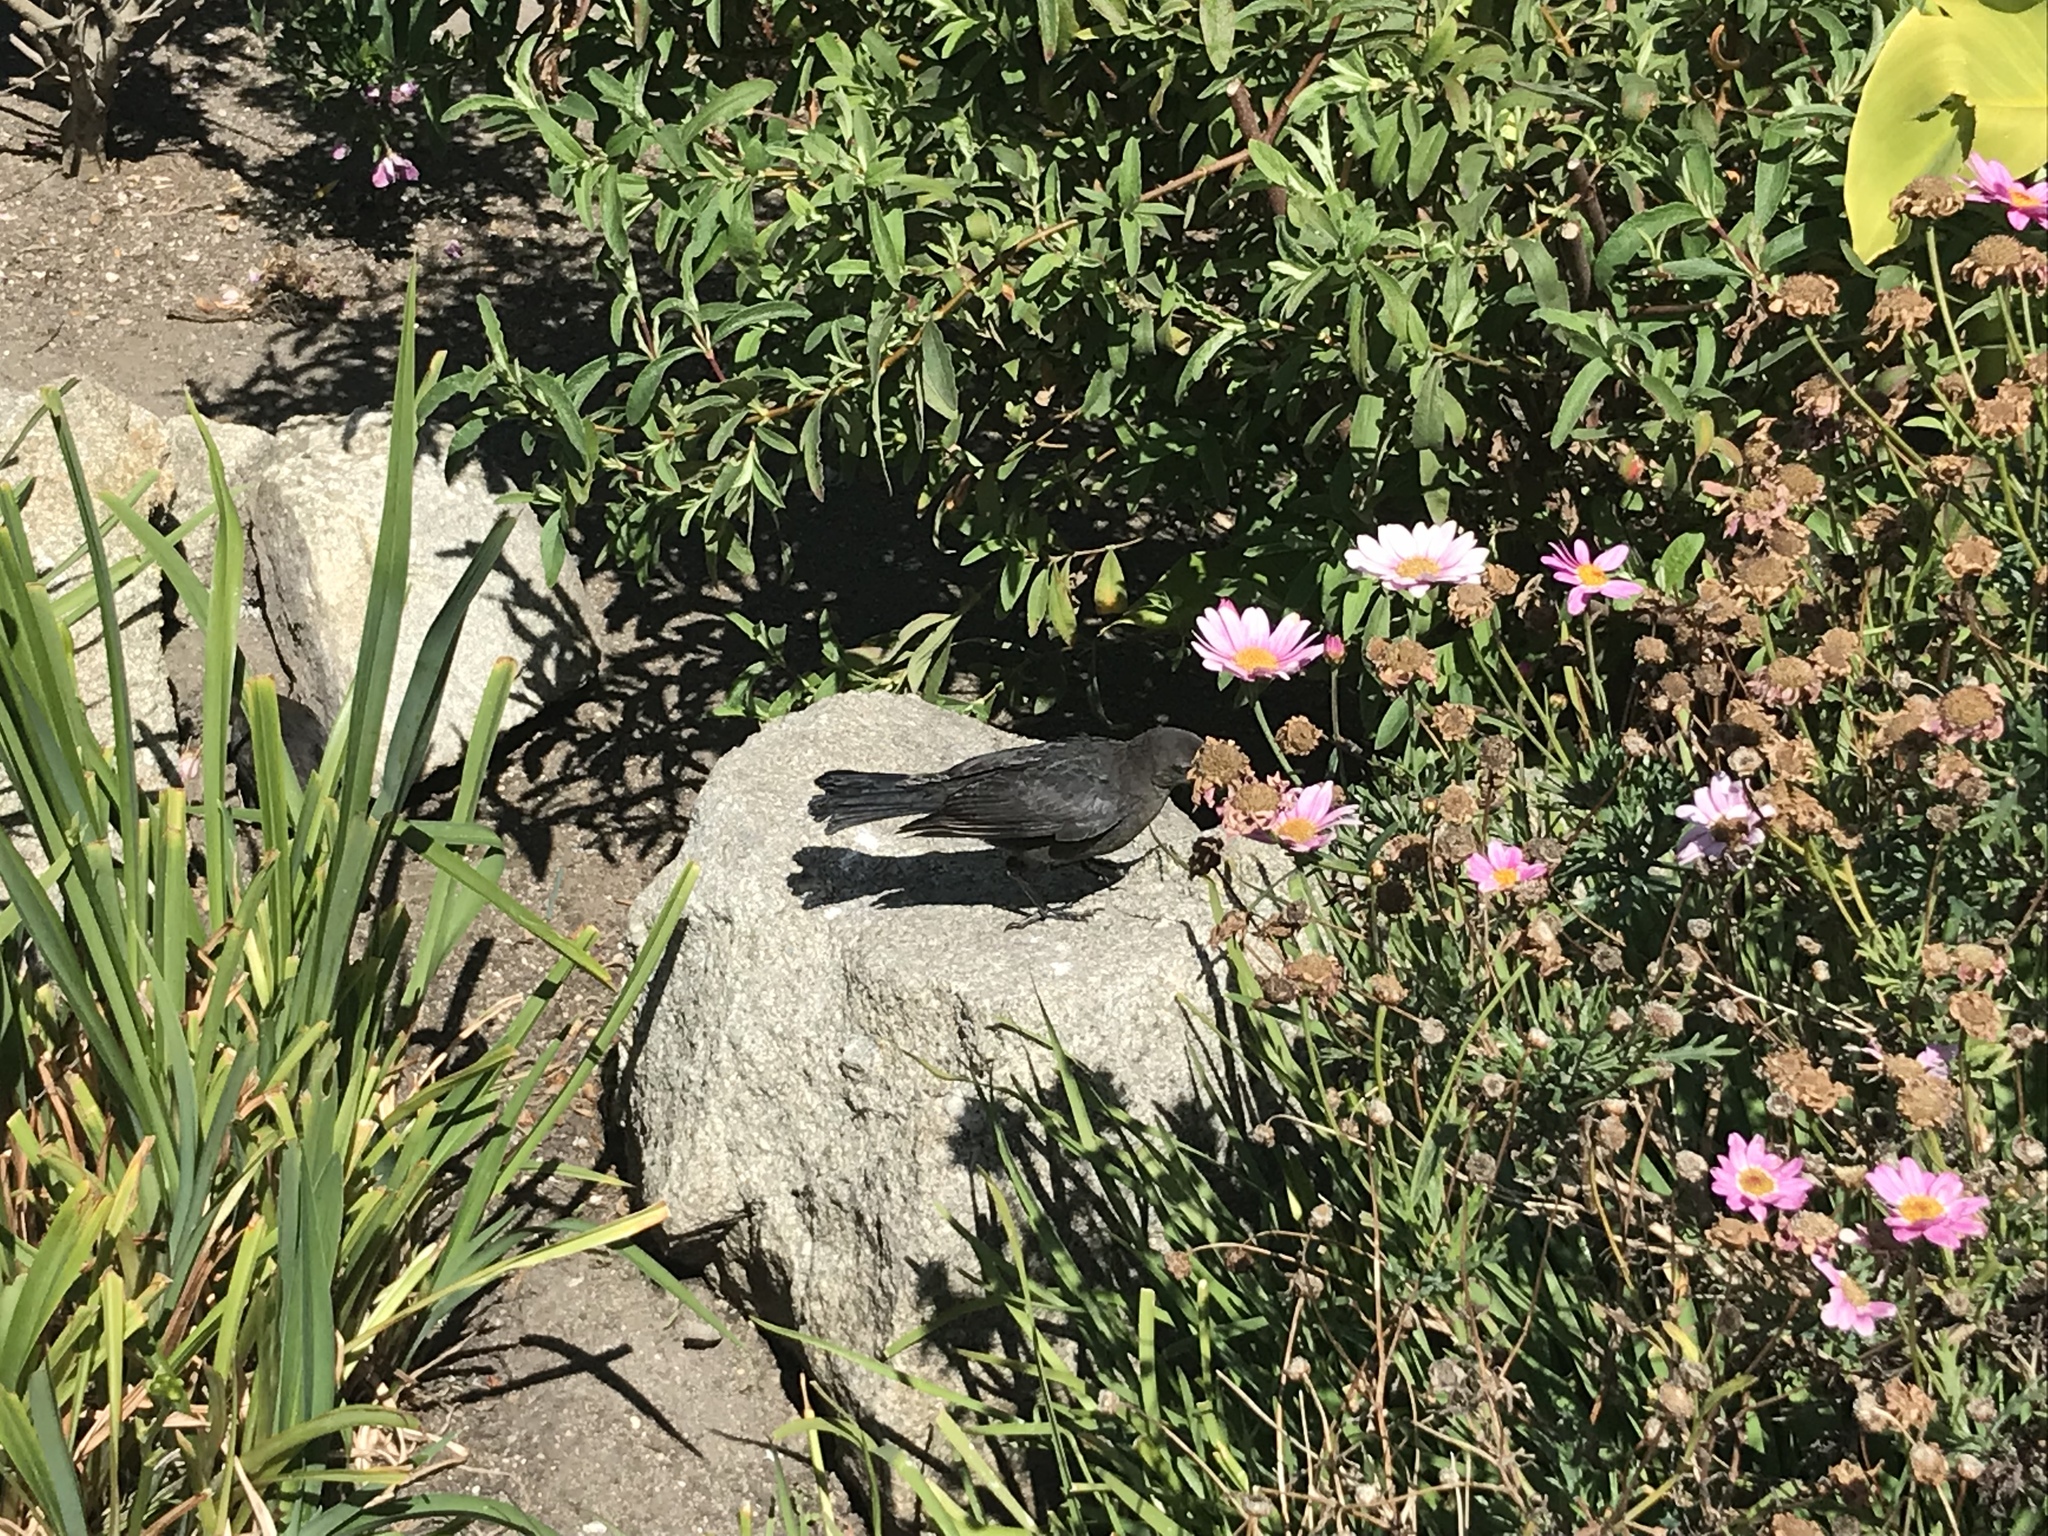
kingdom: Animalia
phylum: Chordata
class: Aves
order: Passeriformes
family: Icteridae
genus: Euphagus
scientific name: Euphagus cyanocephalus
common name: Brewer's blackbird
